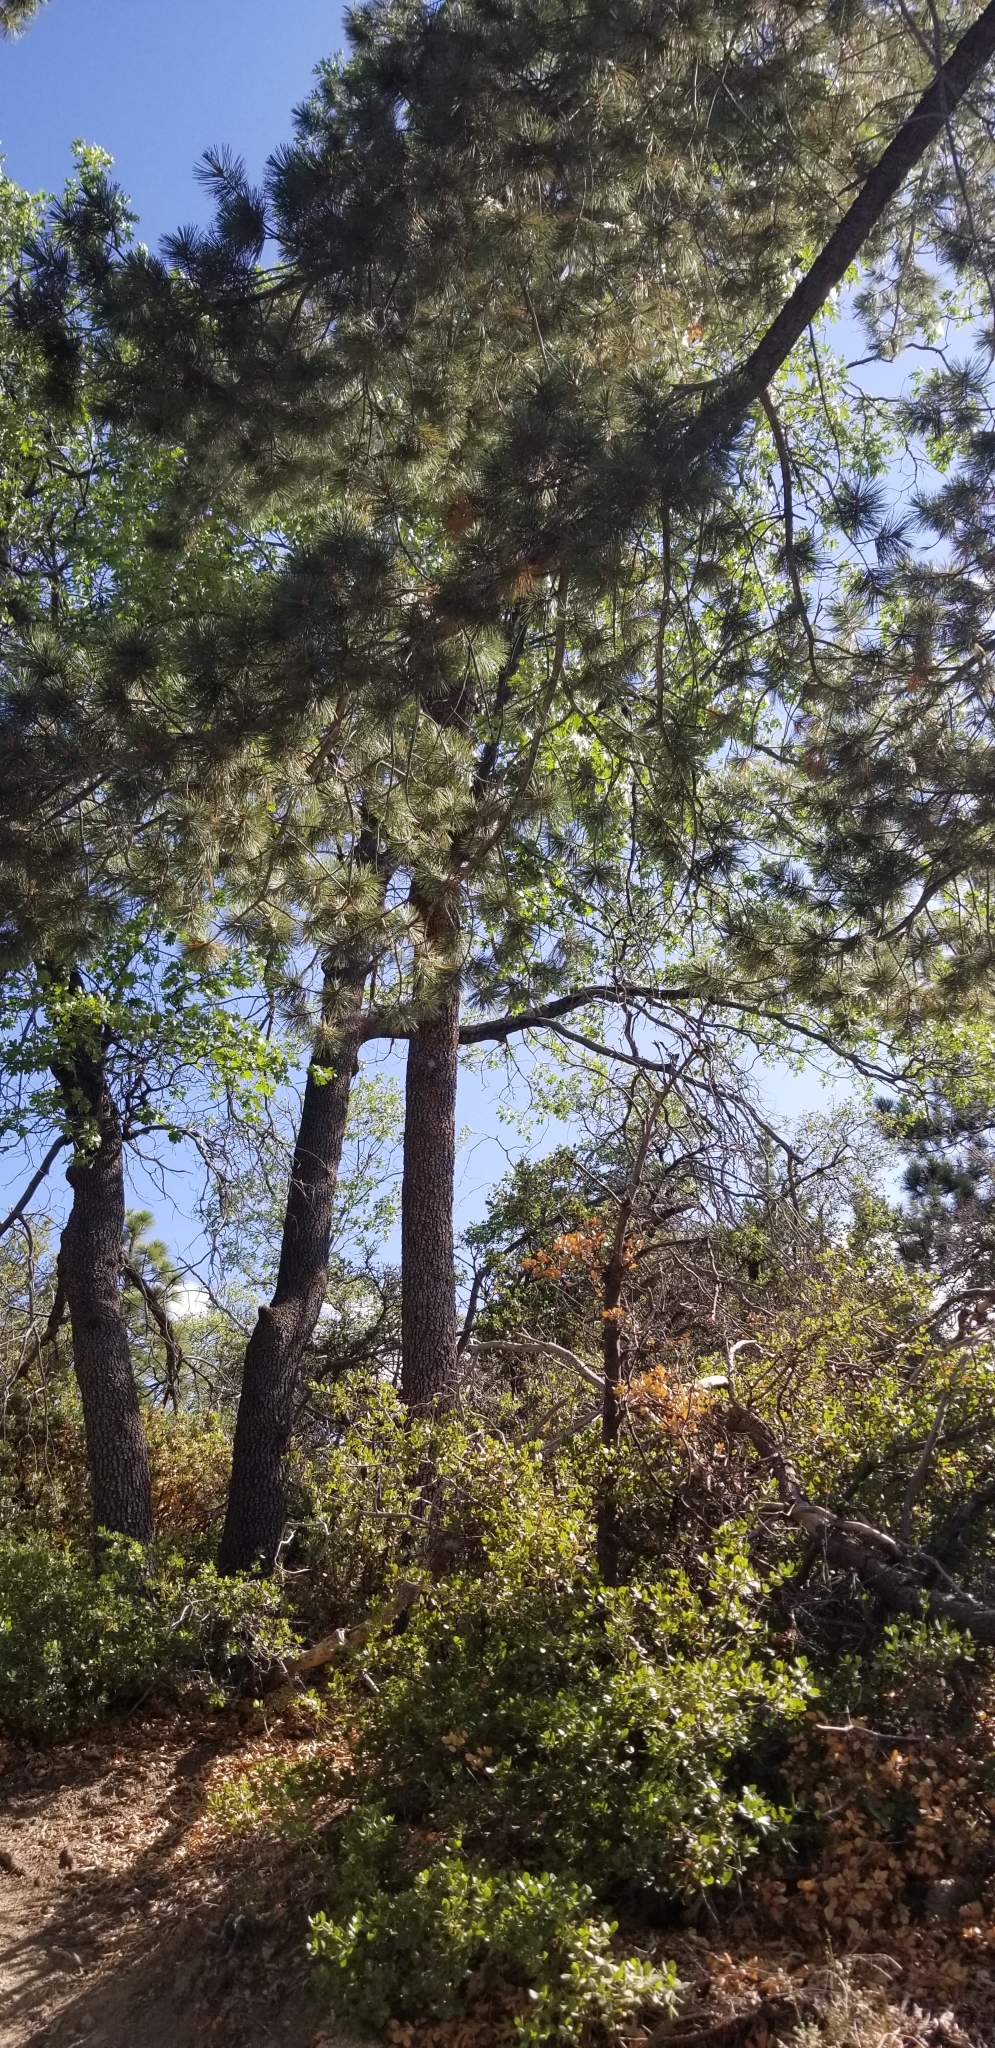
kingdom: Plantae
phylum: Tracheophyta
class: Pinopsida
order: Pinales
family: Pinaceae
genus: Pinus
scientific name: Pinus lambertiana
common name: Sugar pine
